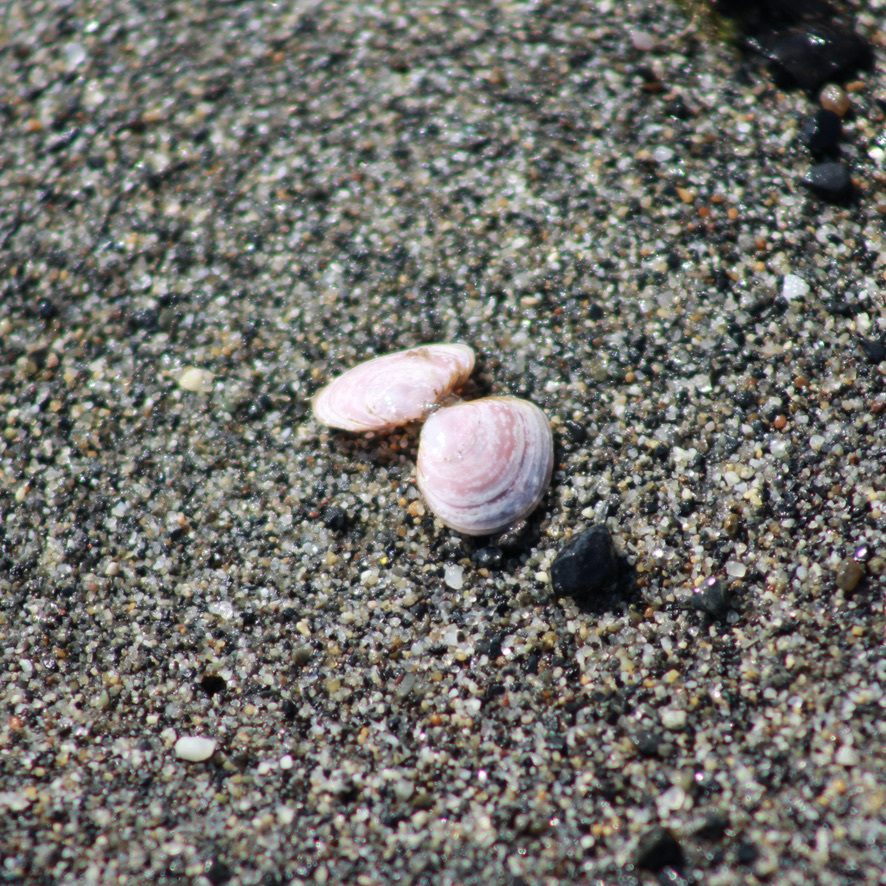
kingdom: Animalia
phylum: Mollusca
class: Bivalvia
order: Cardiida
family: Tellinidae
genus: Macoma
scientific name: Macoma balthica
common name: Baltic tellin
